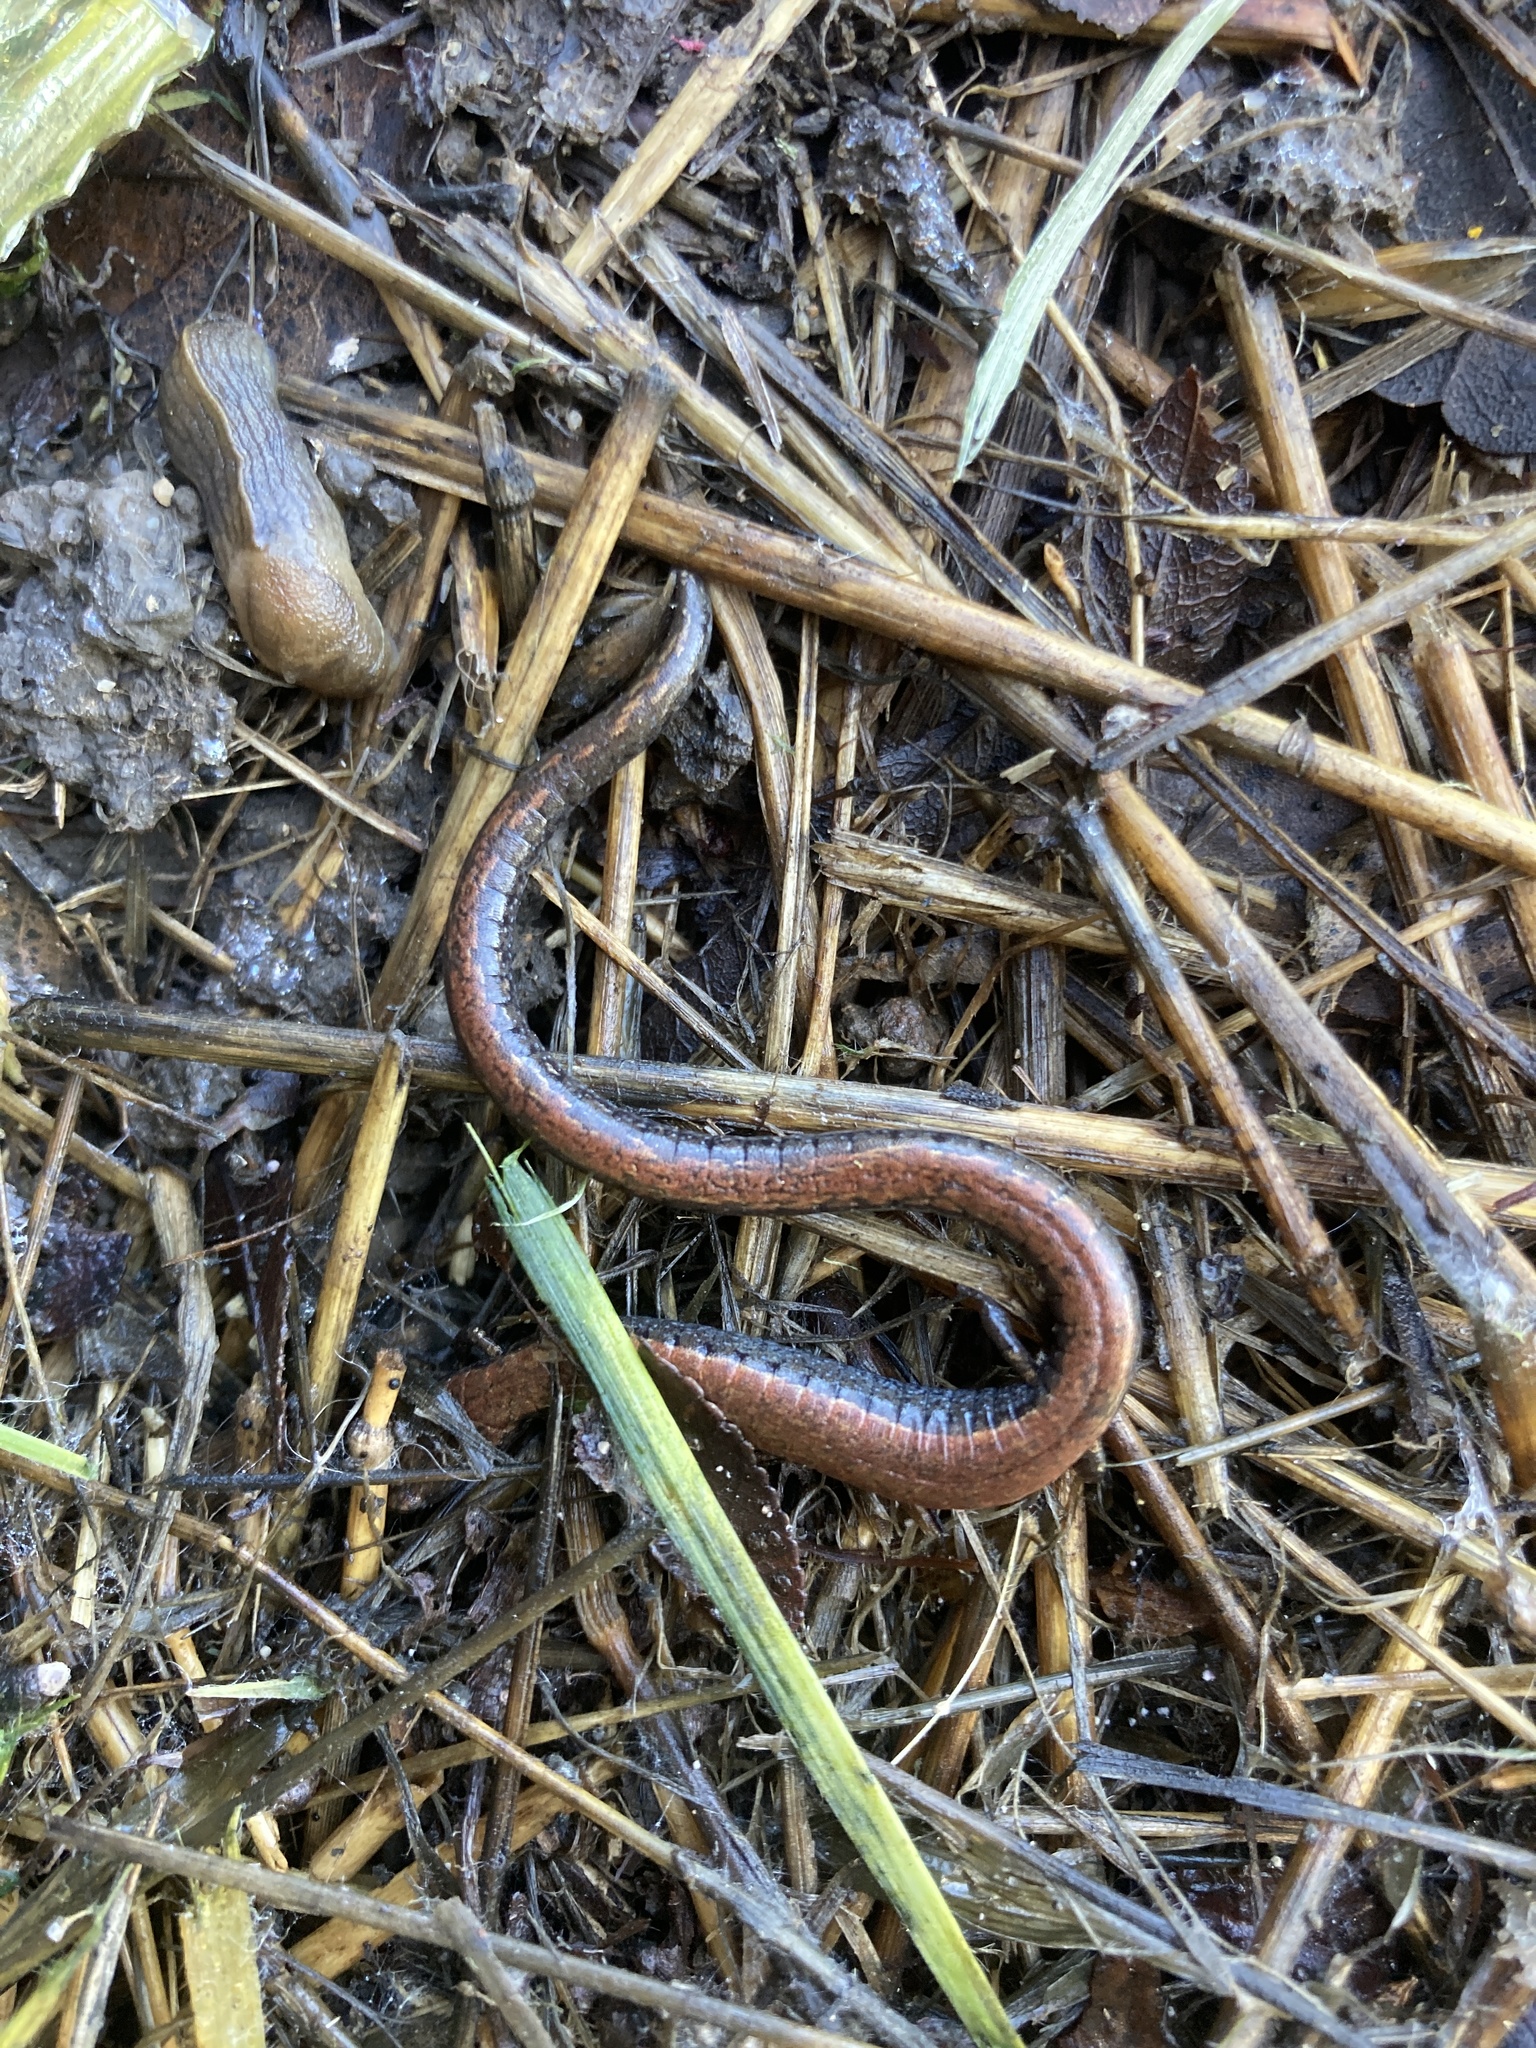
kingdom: Animalia
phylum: Chordata
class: Amphibia
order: Caudata
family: Plethodontidae
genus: Batrachoseps
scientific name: Batrachoseps nigriventris
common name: Black-bellied slender salamander
